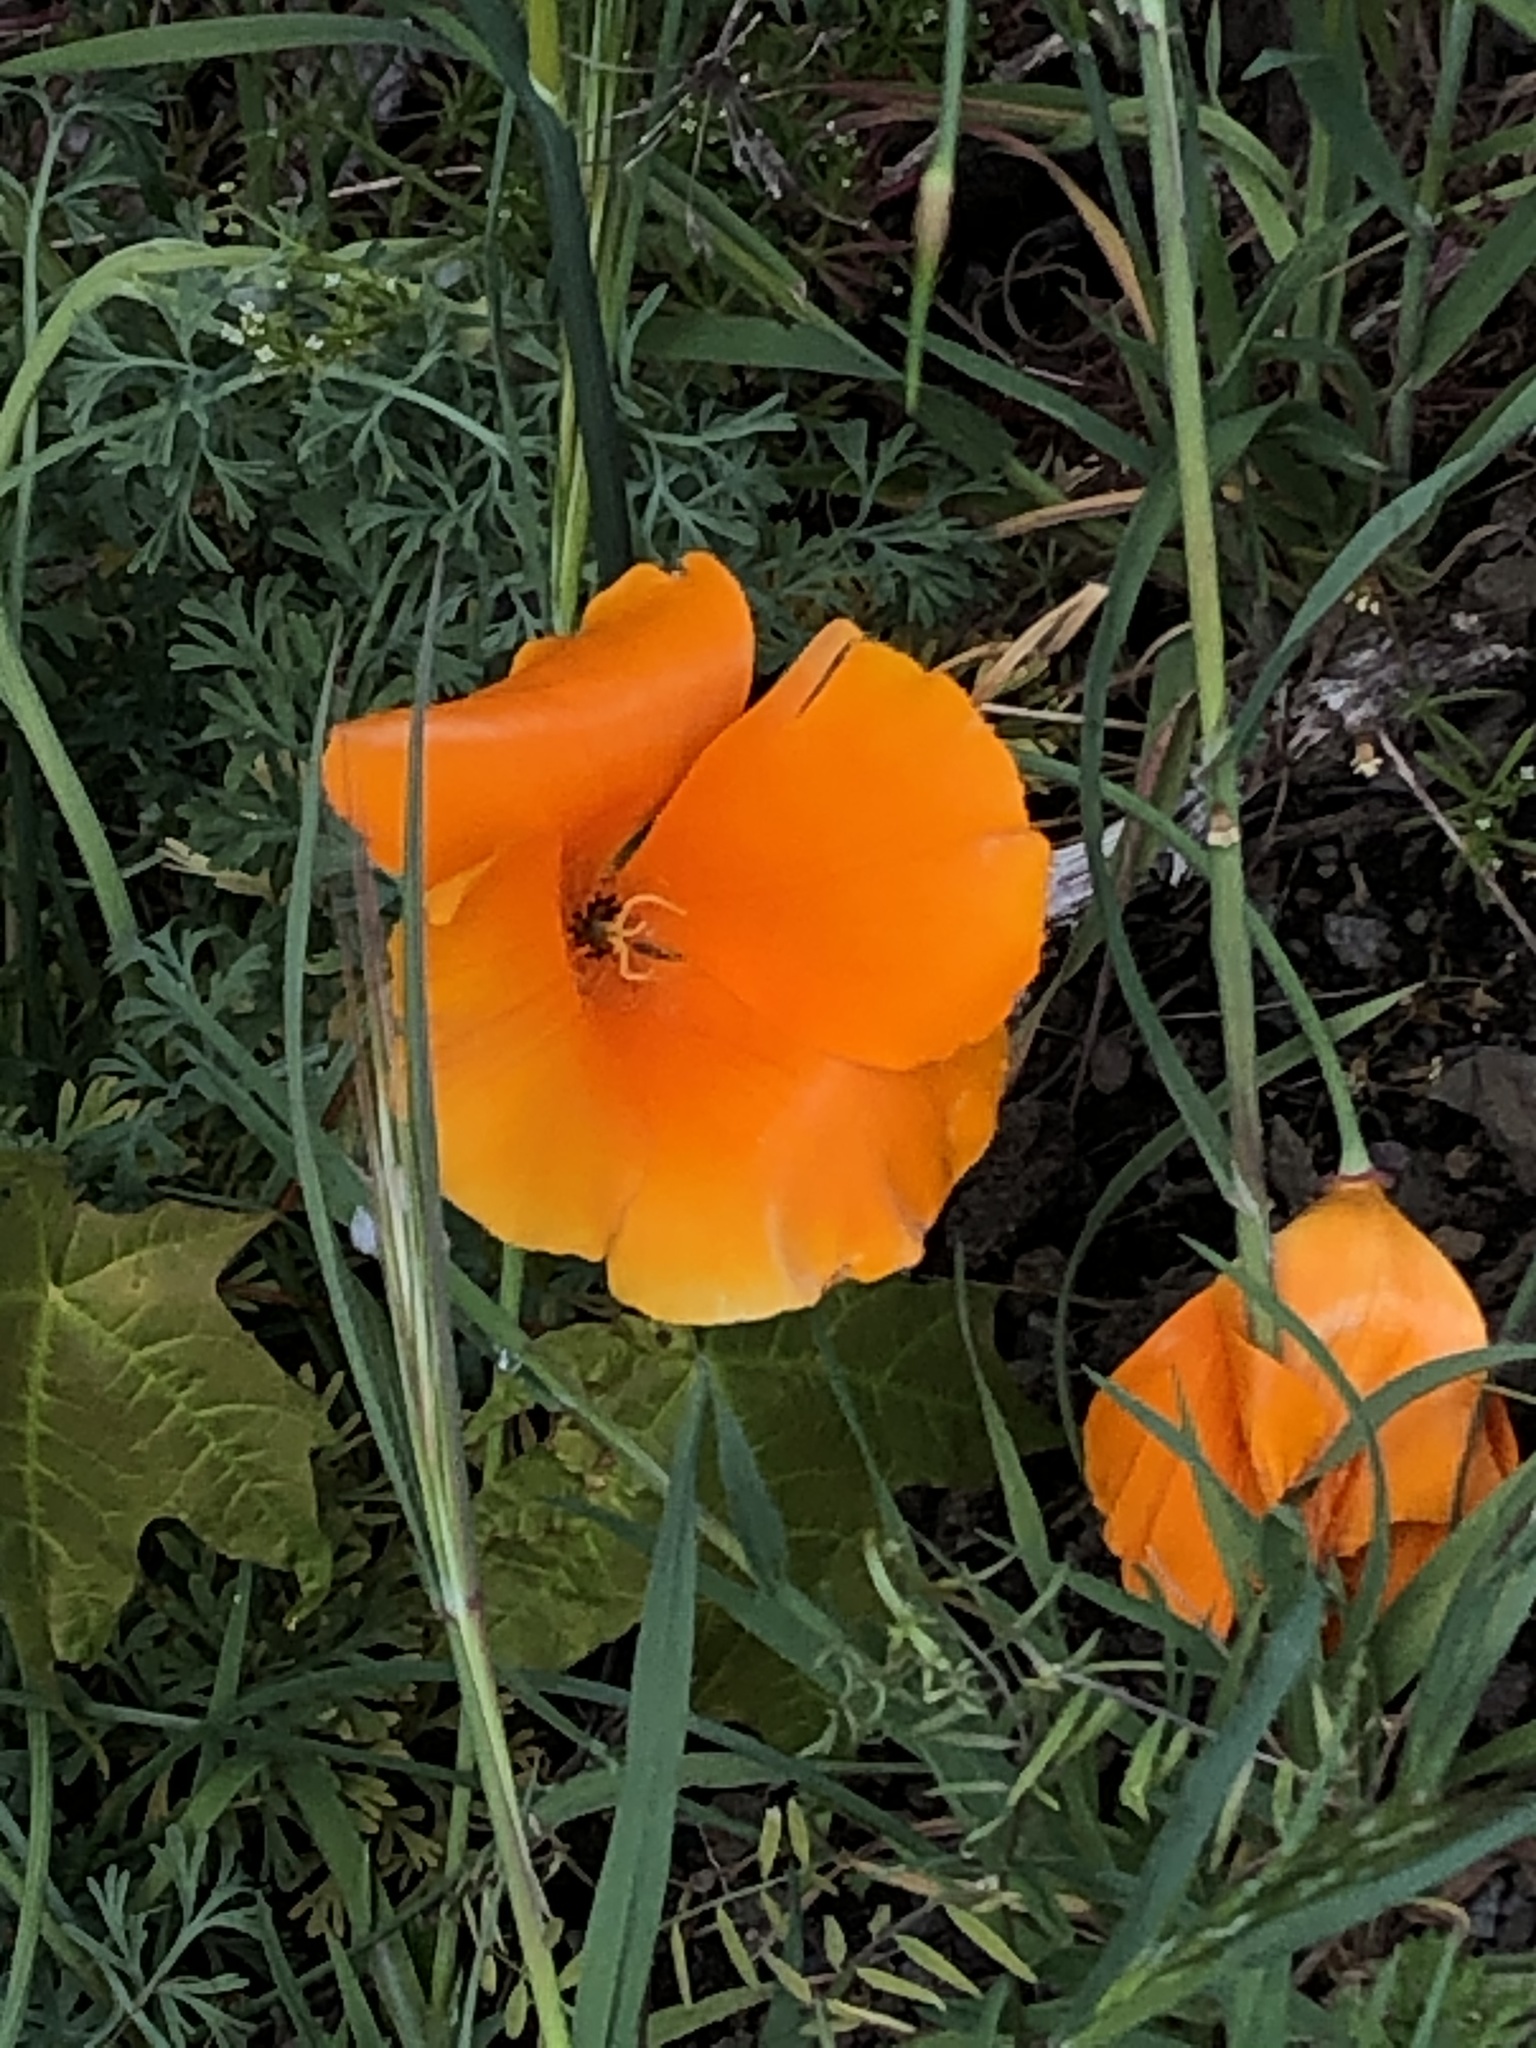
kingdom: Plantae
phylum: Tracheophyta
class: Magnoliopsida
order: Ranunculales
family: Papaveraceae
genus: Eschscholzia
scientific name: Eschscholzia californica
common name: California poppy
